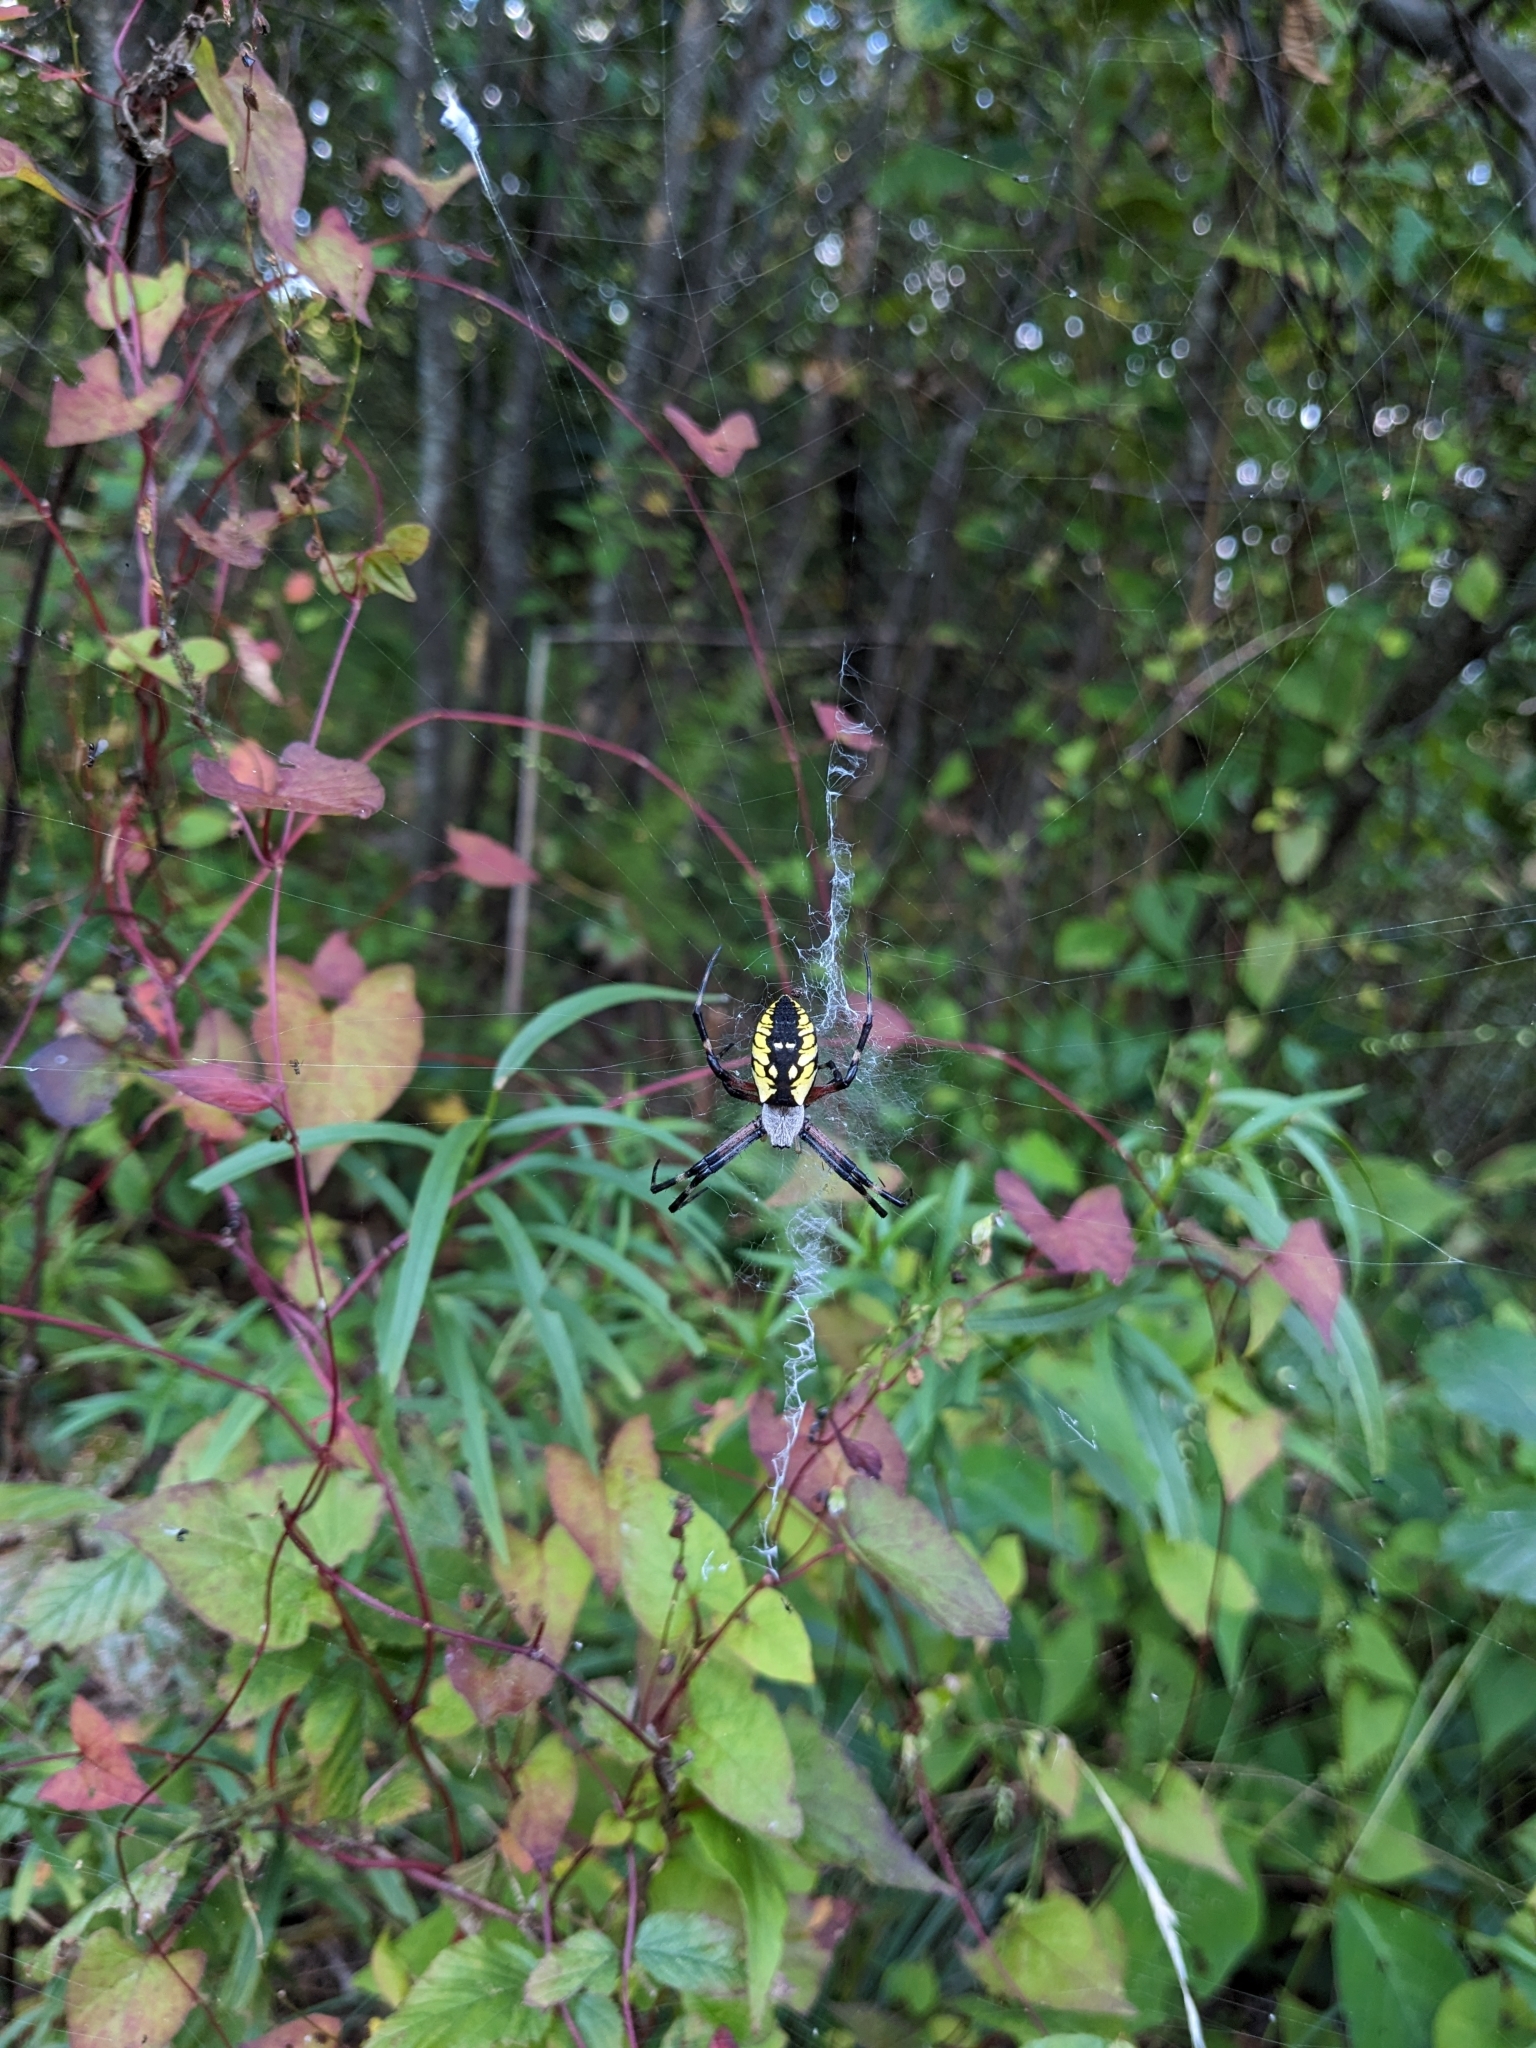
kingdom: Animalia
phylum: Arthropoda
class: Arachnida
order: Araneae
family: Araneidae
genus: Argiope
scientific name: Argiope aurantia
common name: Orb weavers
